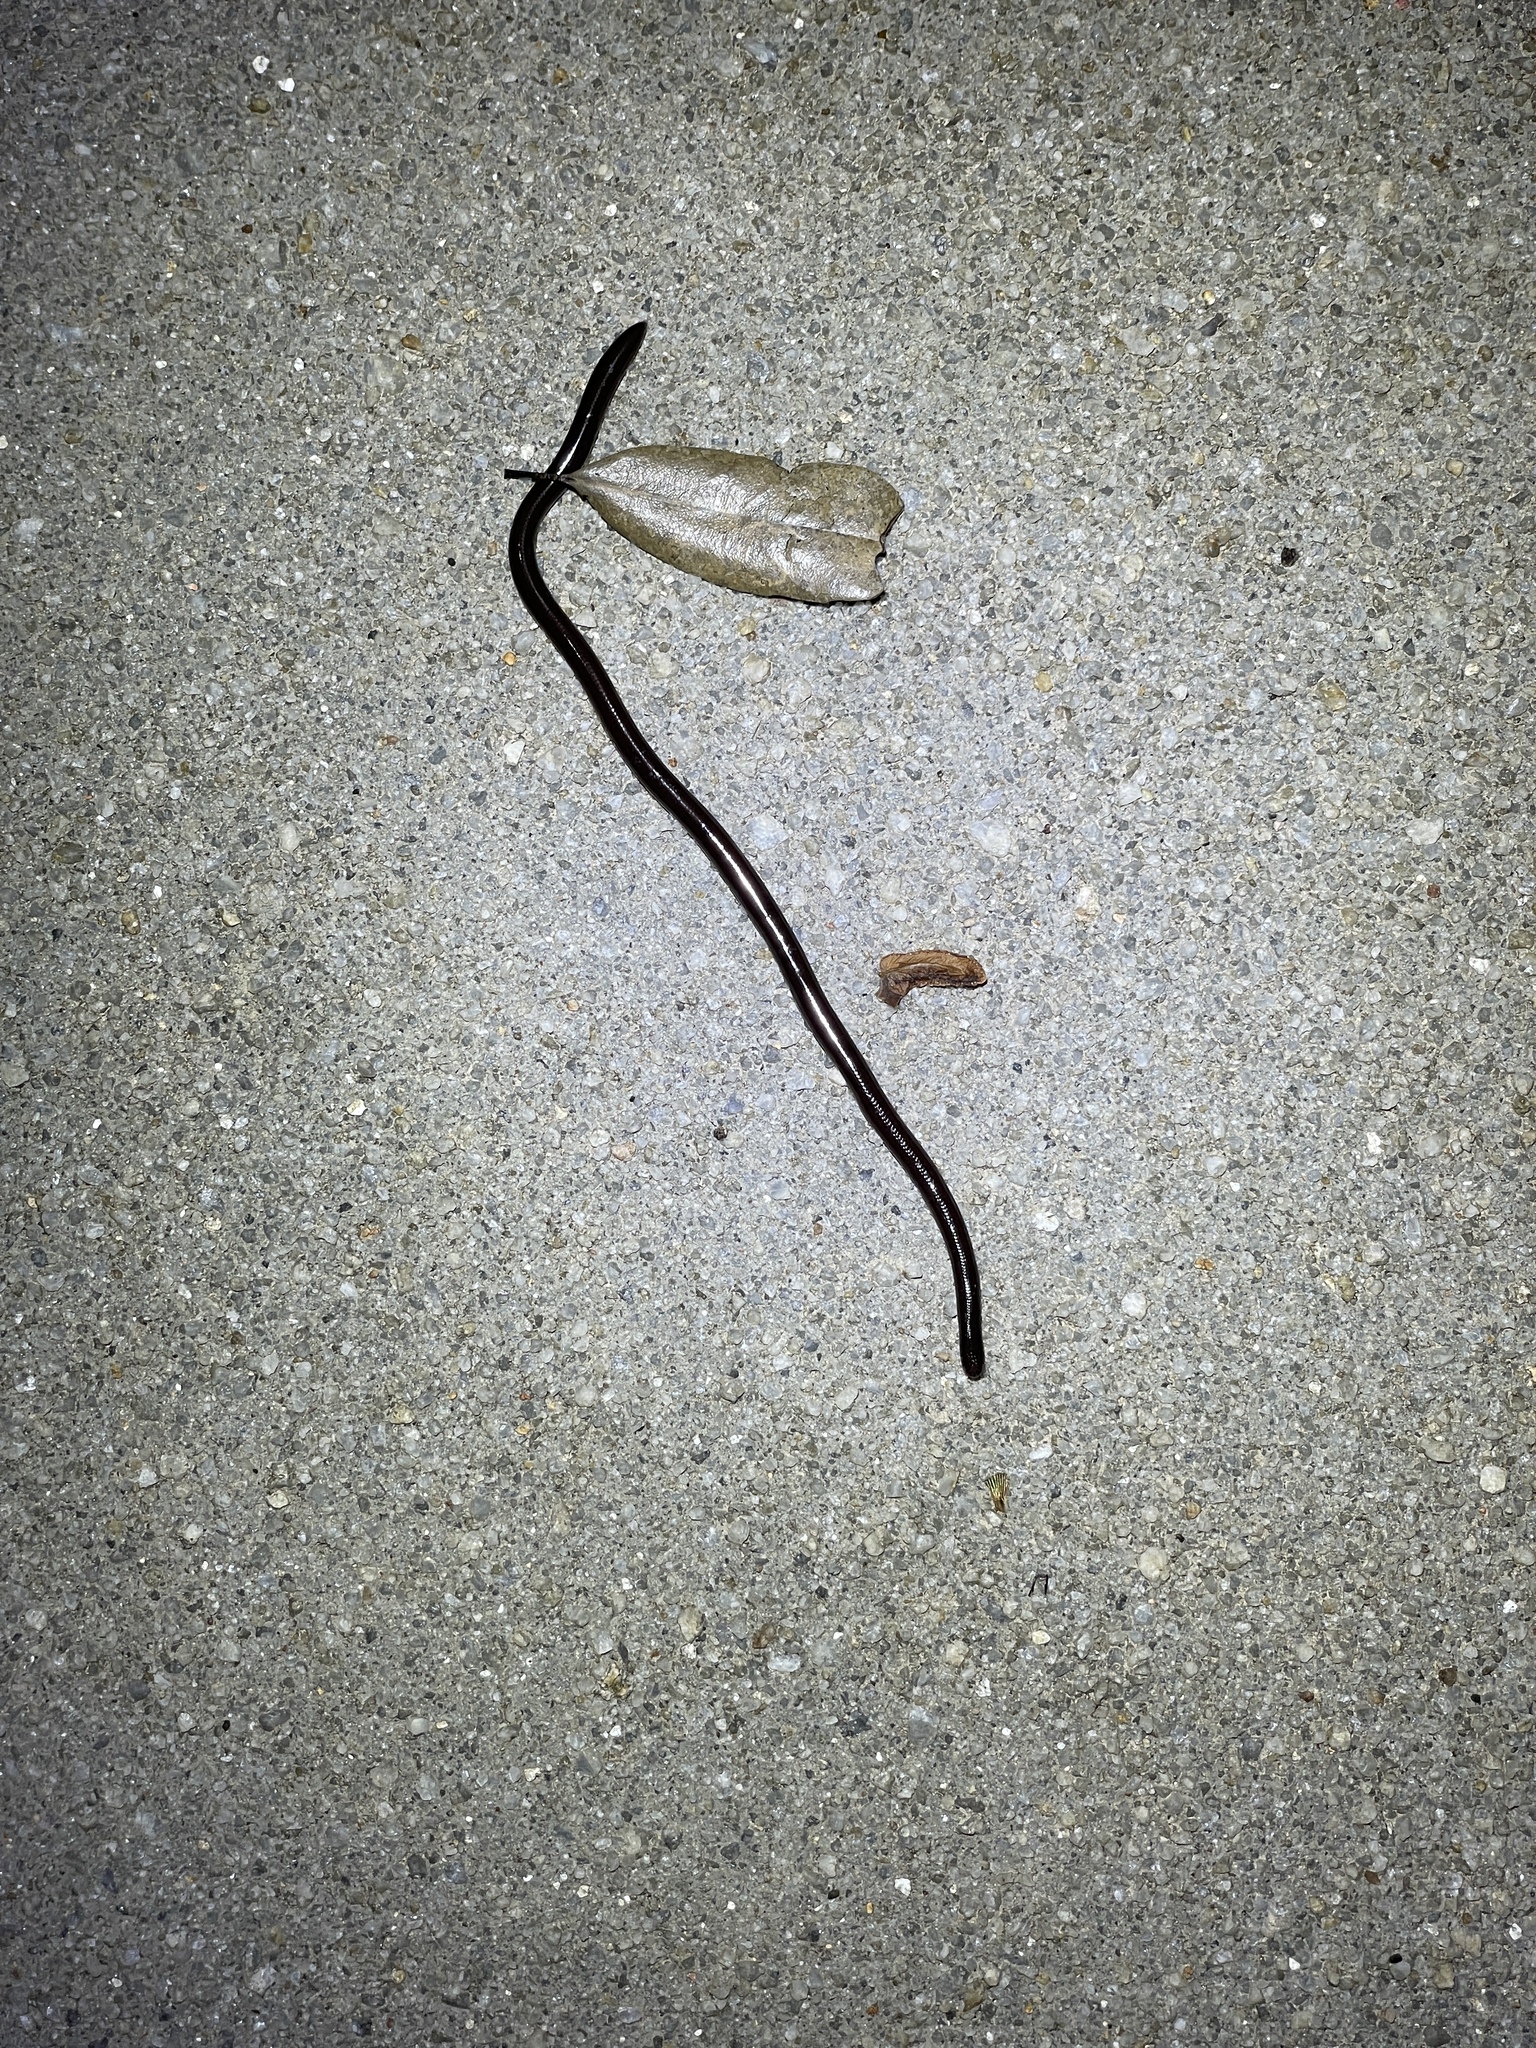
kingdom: Animalia
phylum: Chordata
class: Squamata
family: Typhlopidae
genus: Indotyphlops
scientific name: Indotyphlops braminus
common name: Brahminy blindsnake
